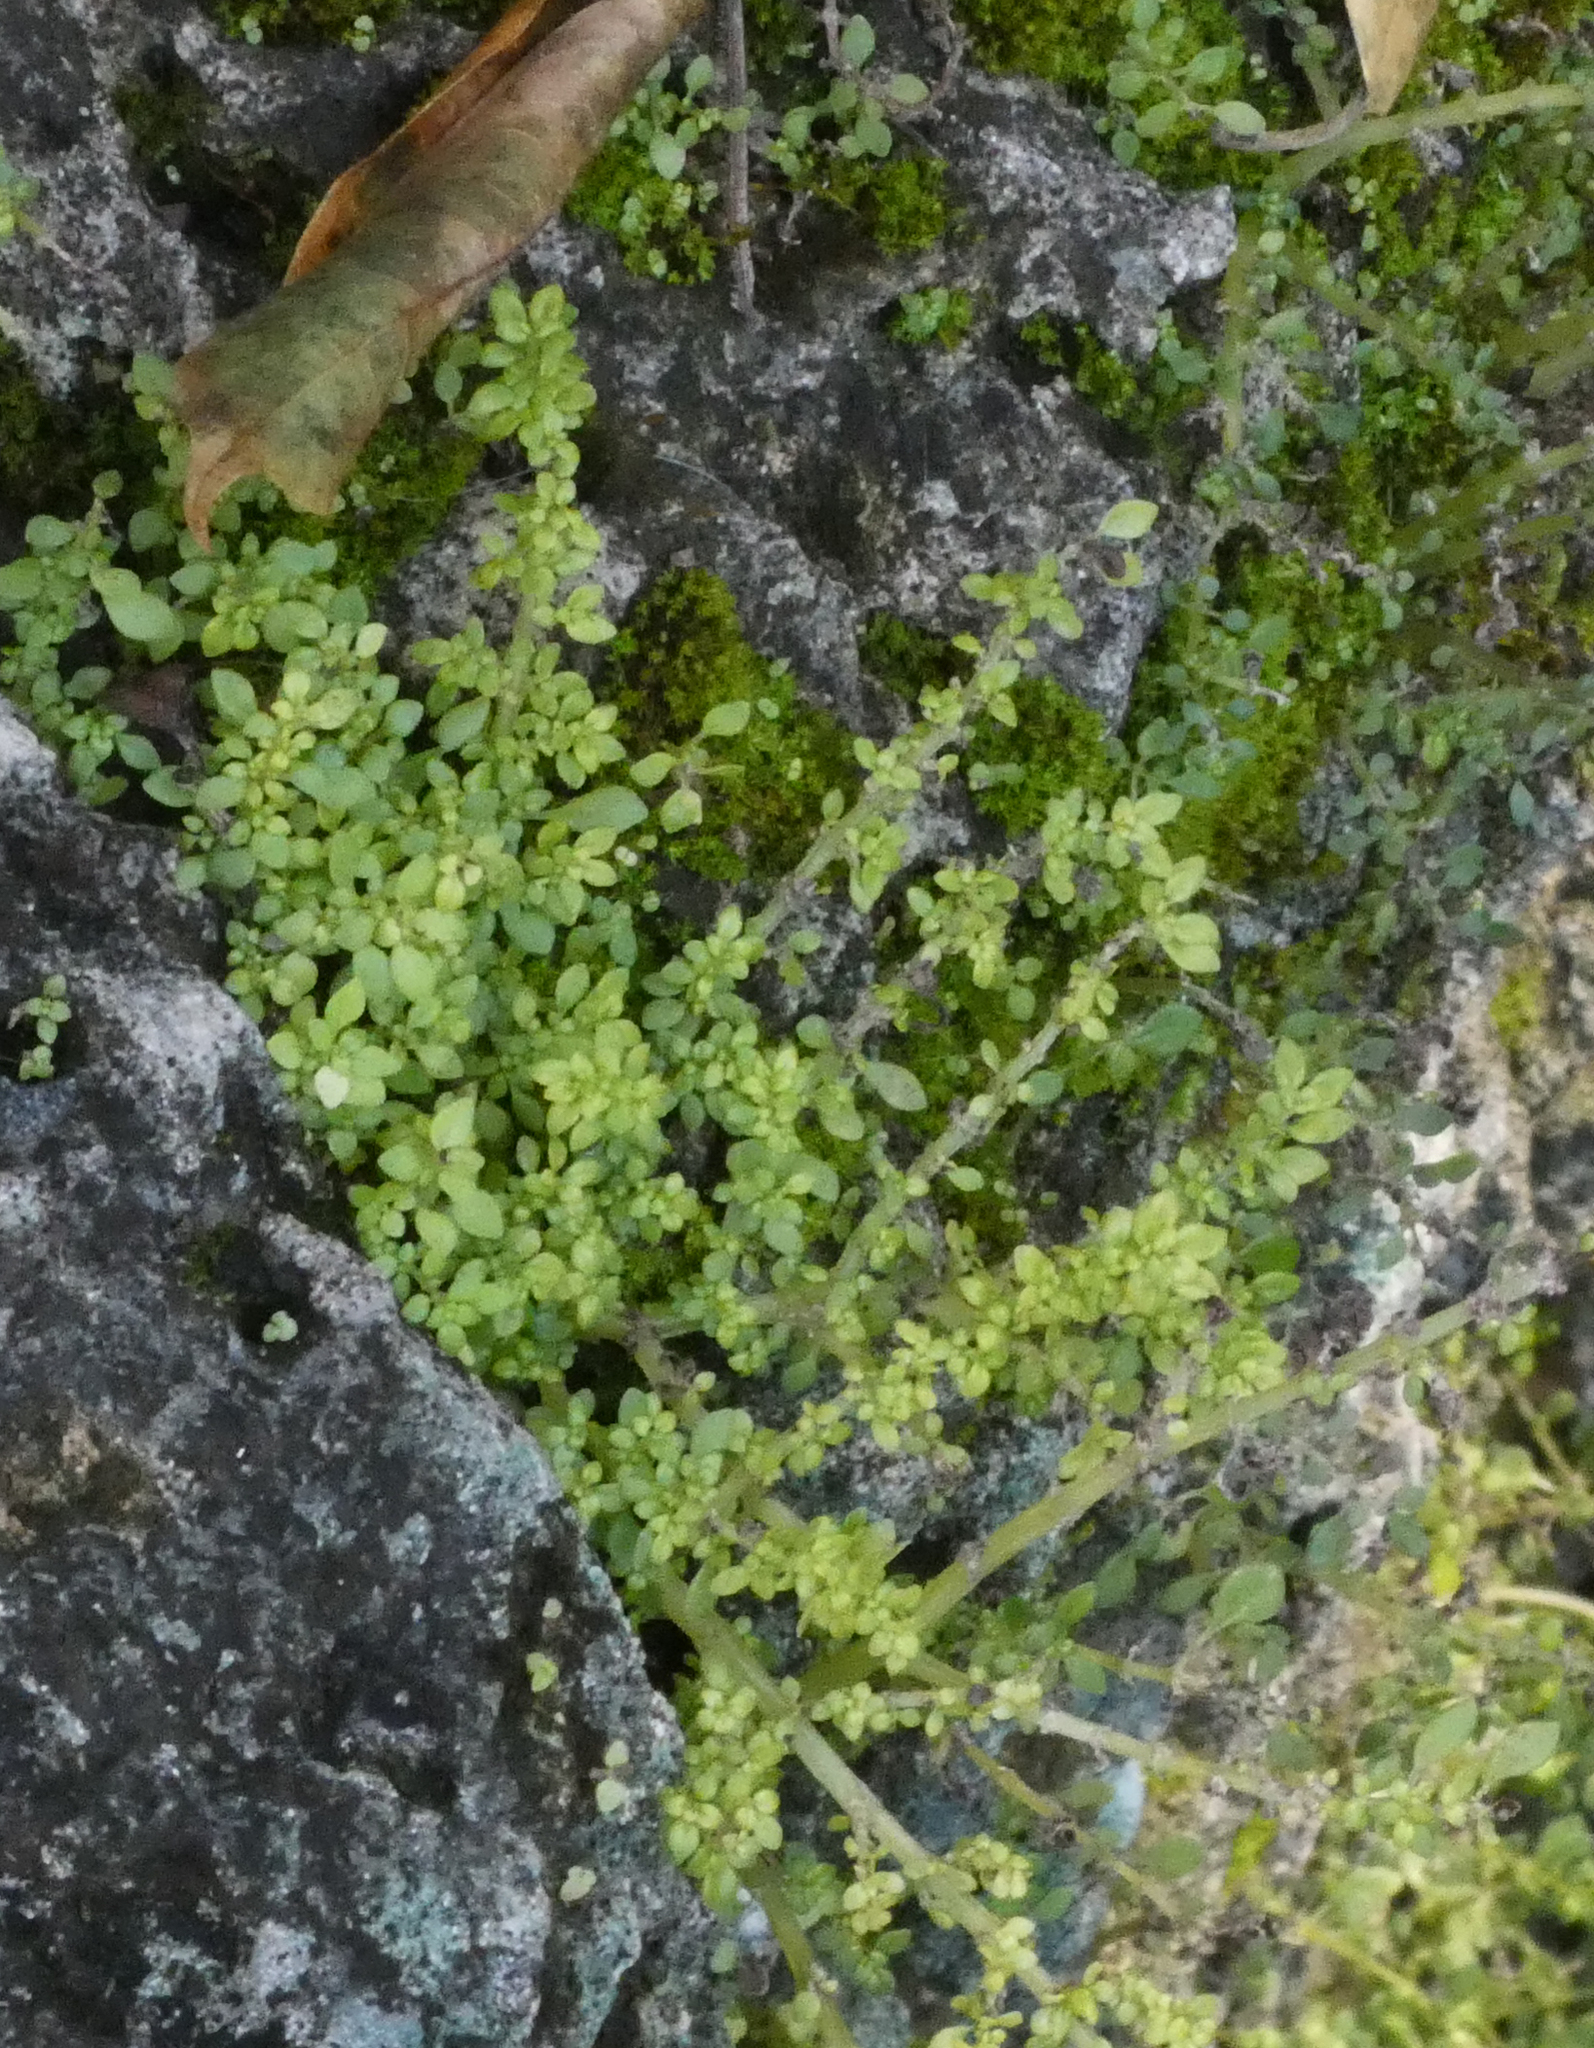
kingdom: Plantae
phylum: Tracheophyta
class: Magnoliopsida
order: Rosales
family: Urticaceae
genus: Pilea
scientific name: Pilea microphylla
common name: Artillery-plant
